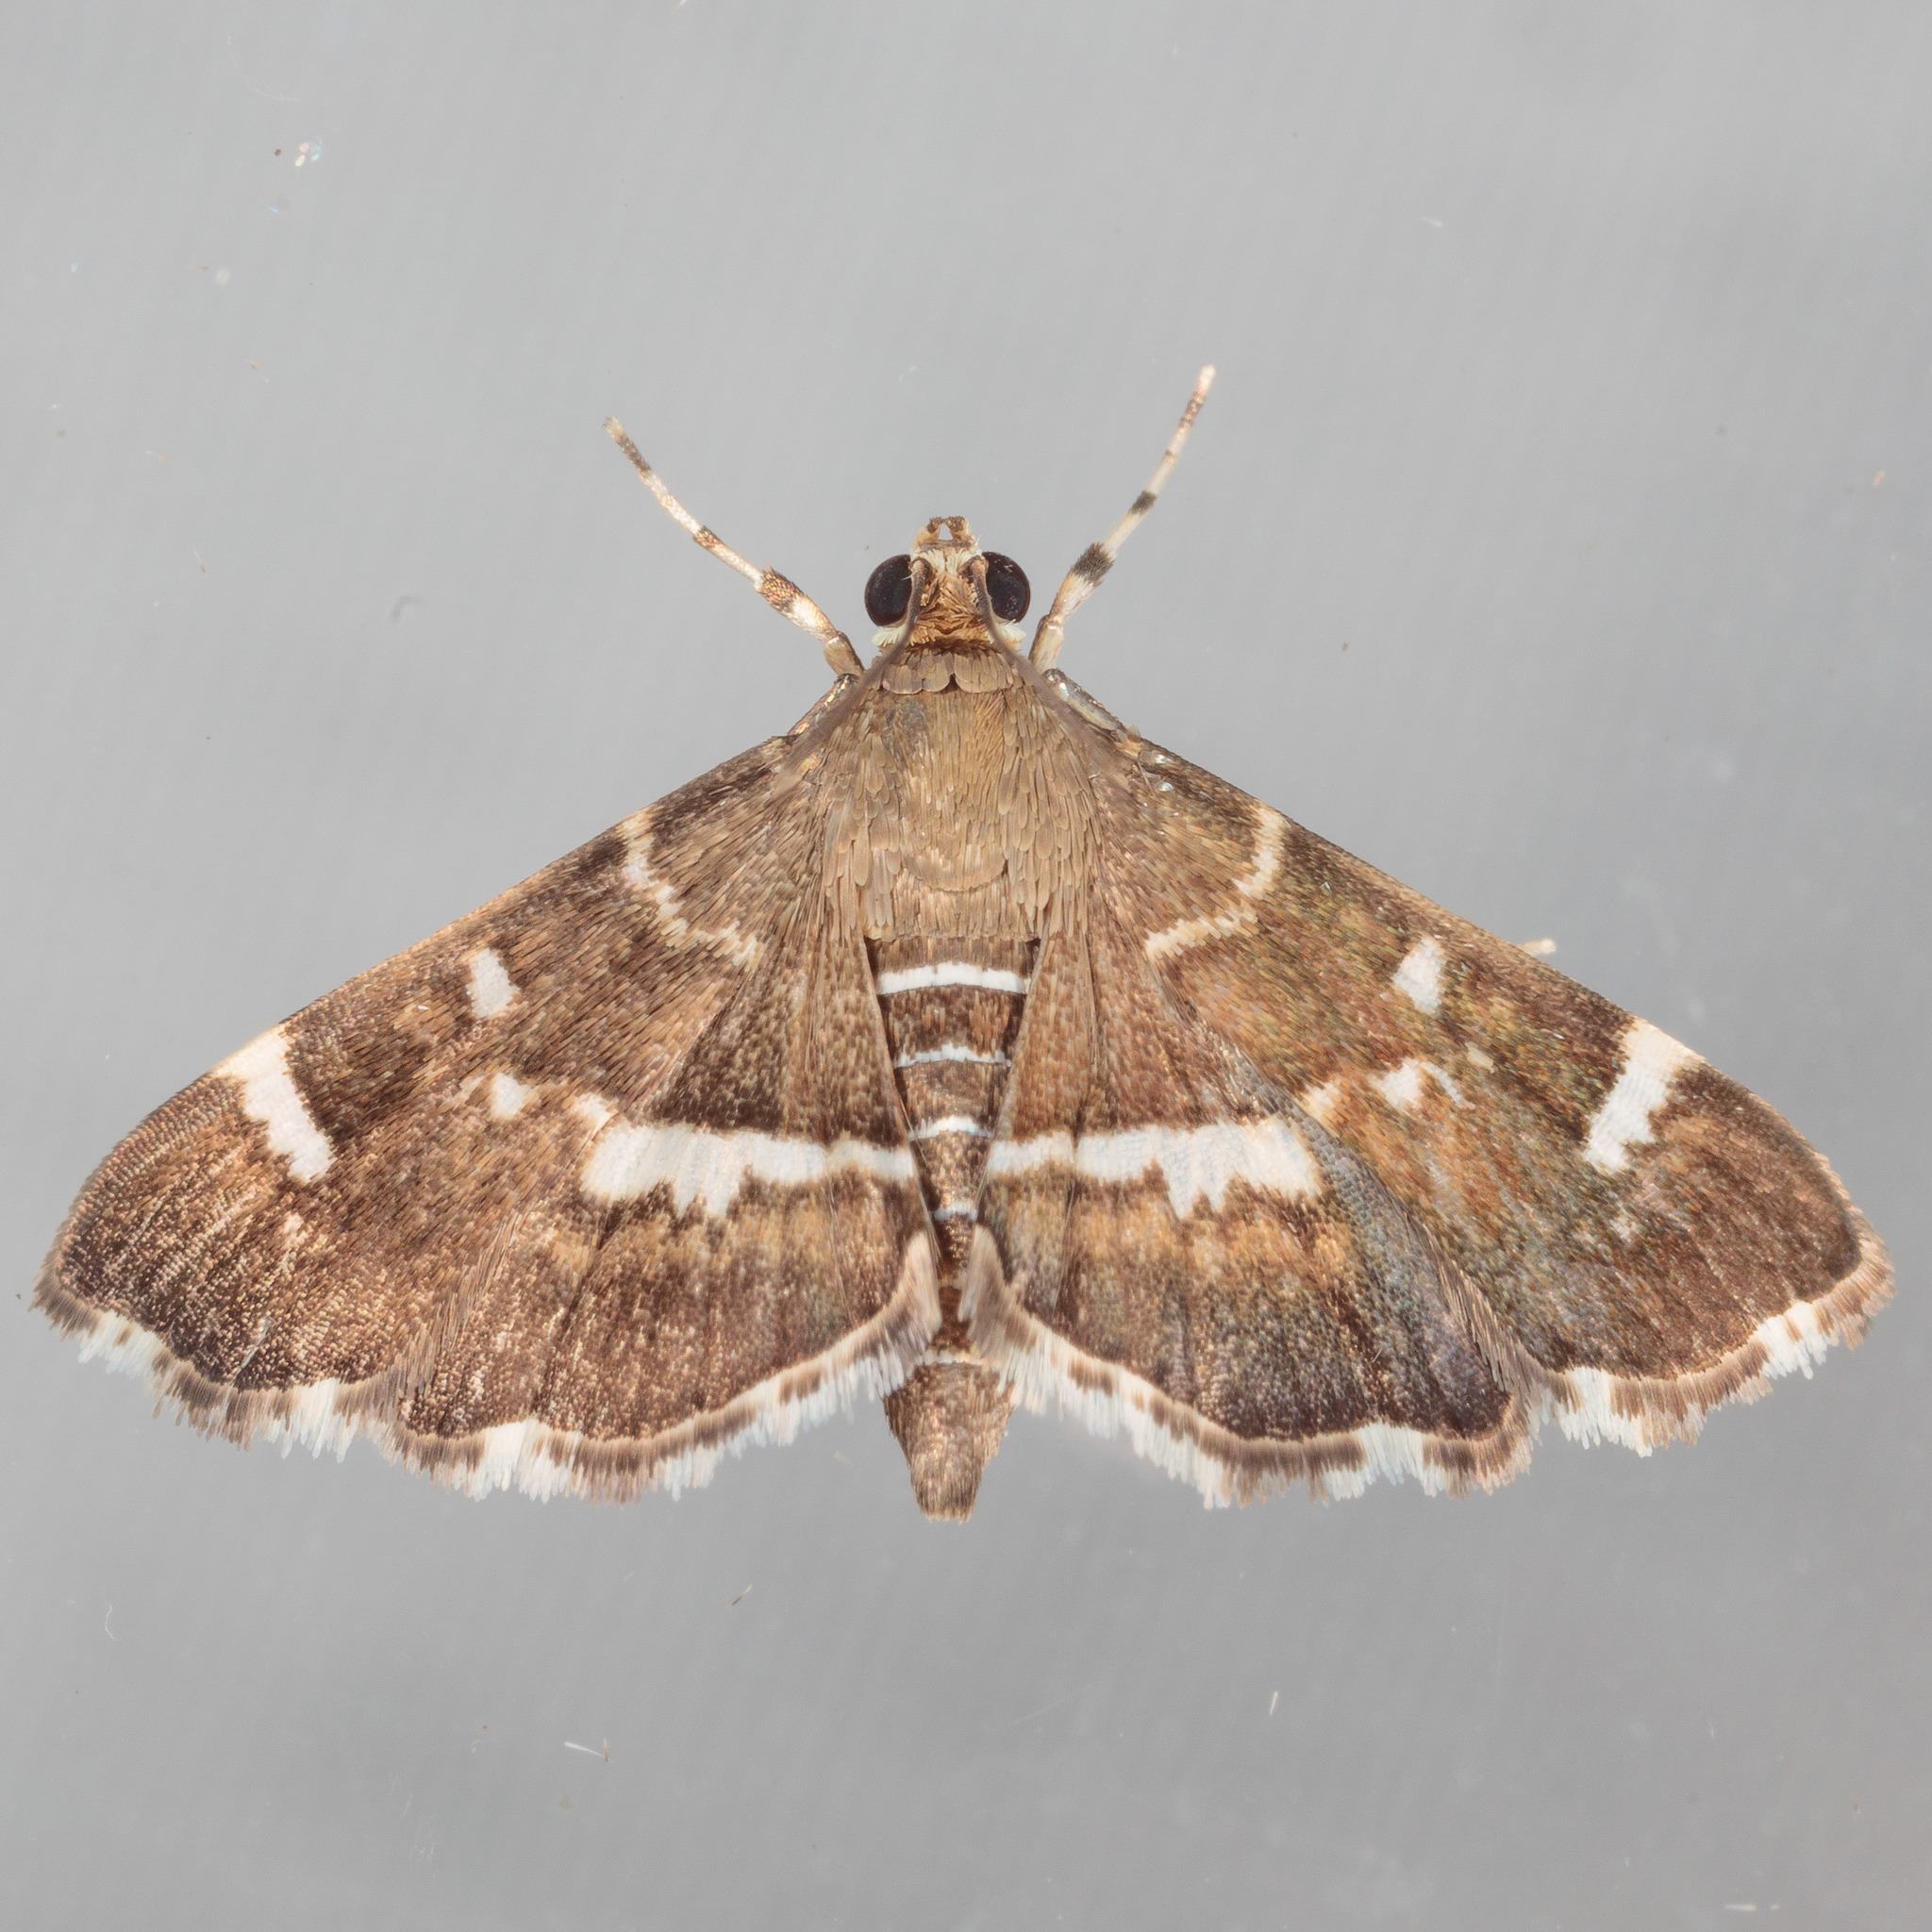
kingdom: Animalia
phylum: Arthropoda
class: Insecta
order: Lepidoptera
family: Crambidae
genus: Hymenia
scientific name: Hymenia perspectalis
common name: Spotted beet webworm
